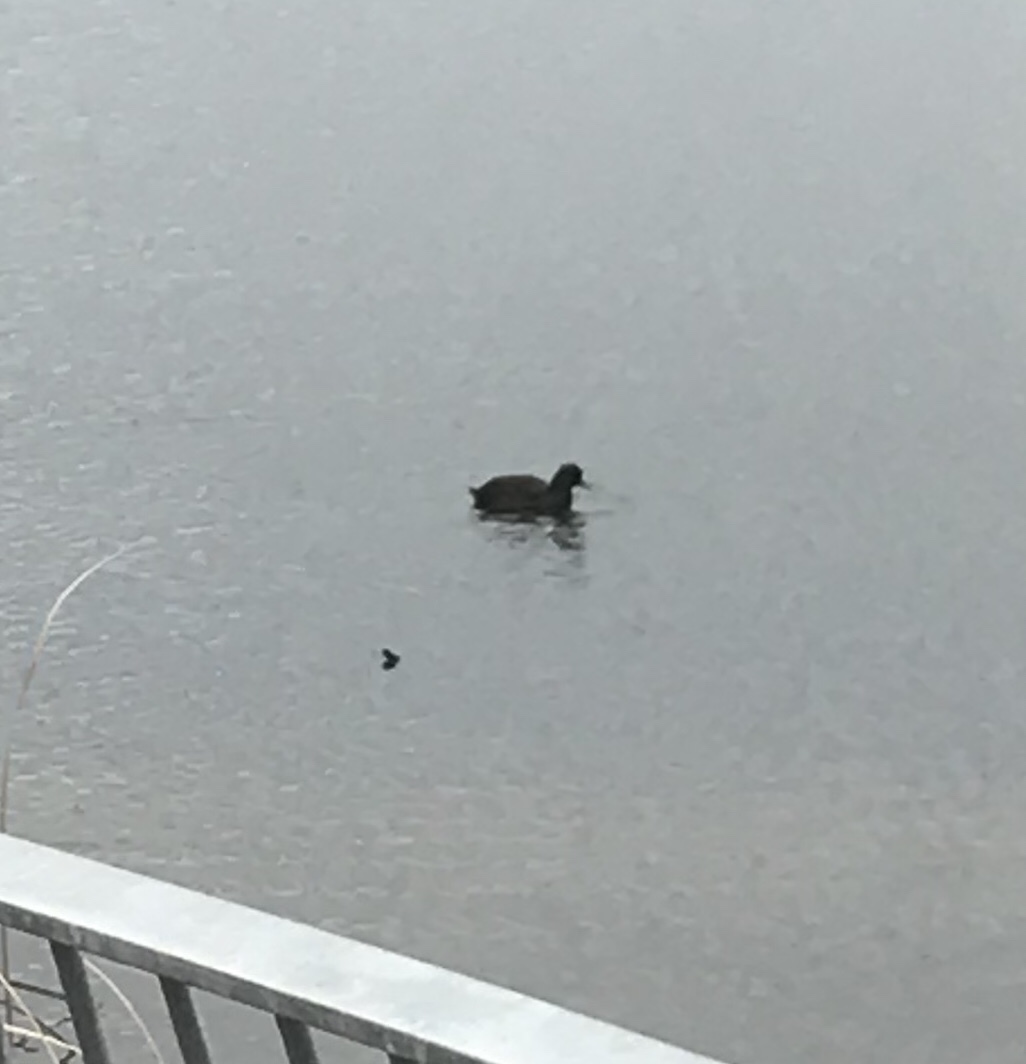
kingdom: Animalia
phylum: Chordata
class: Aves
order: Gruiformes
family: Rallidae
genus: Fulica
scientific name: Fulica americana
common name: American coot
